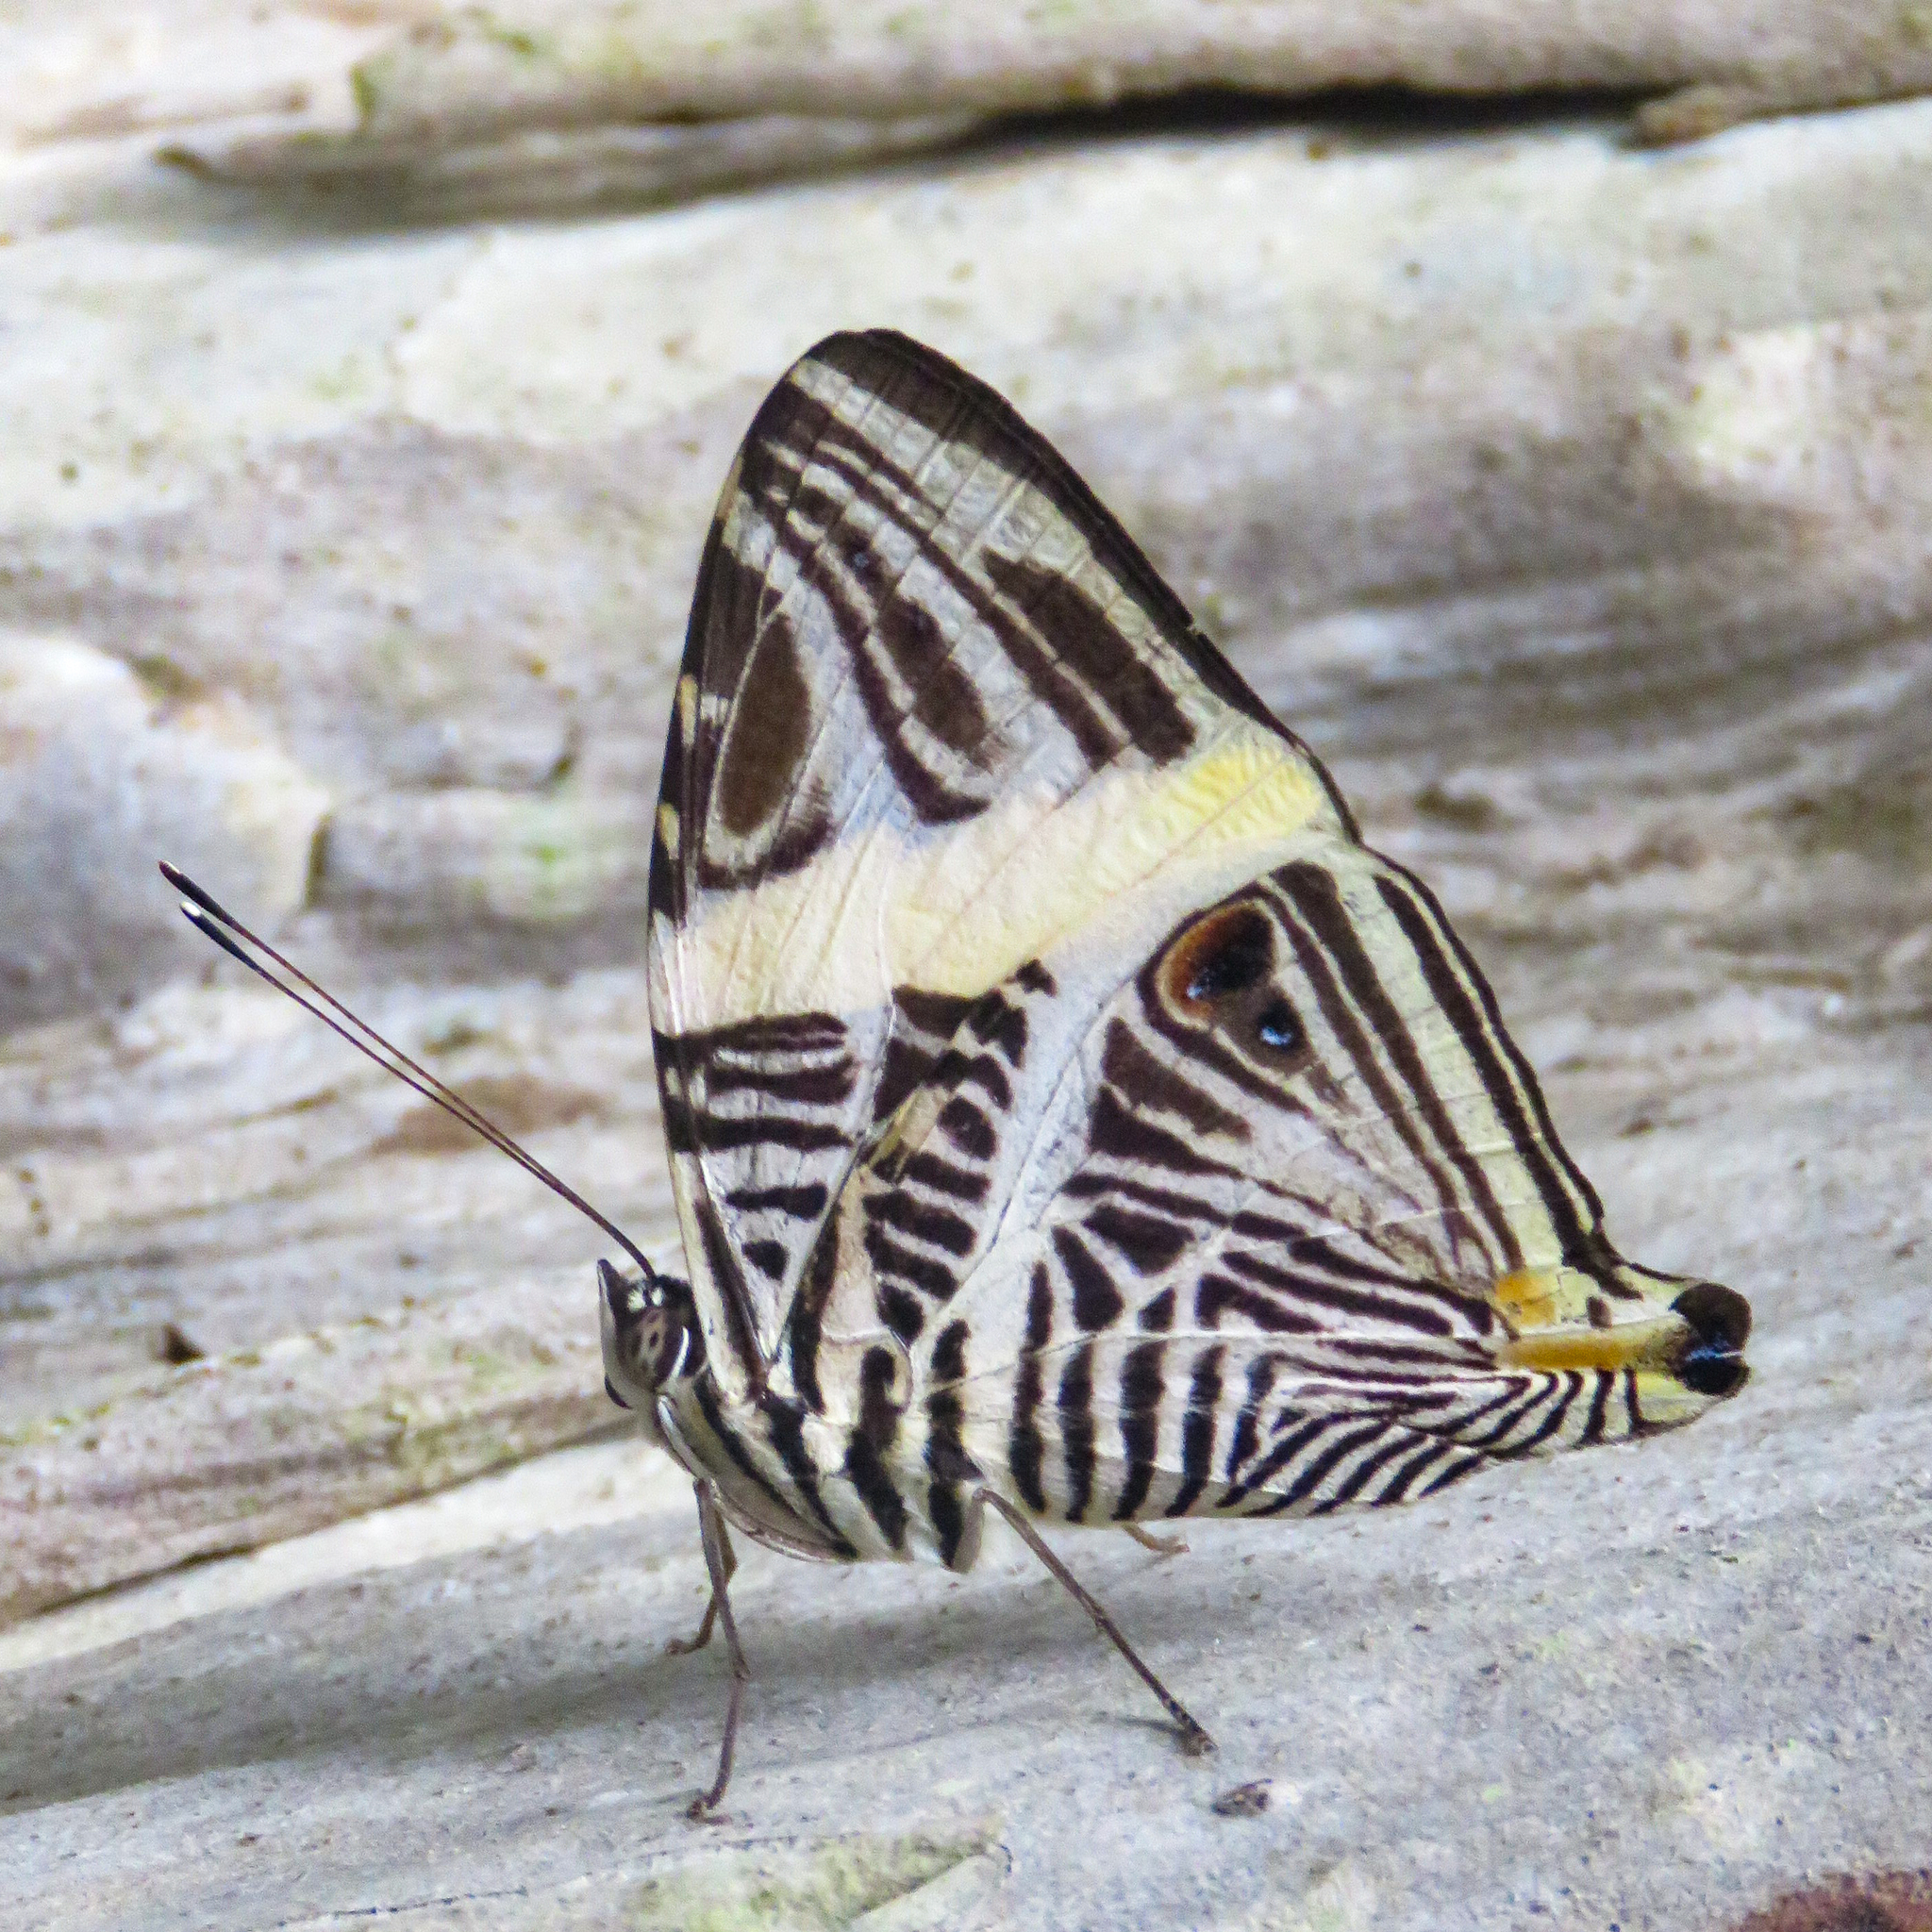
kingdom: Animalia
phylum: Arthropoda
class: Insecta
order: Lepidoptera
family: Nymphalidae
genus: Colobura
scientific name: Colobura dirce
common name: Dirce beauty
